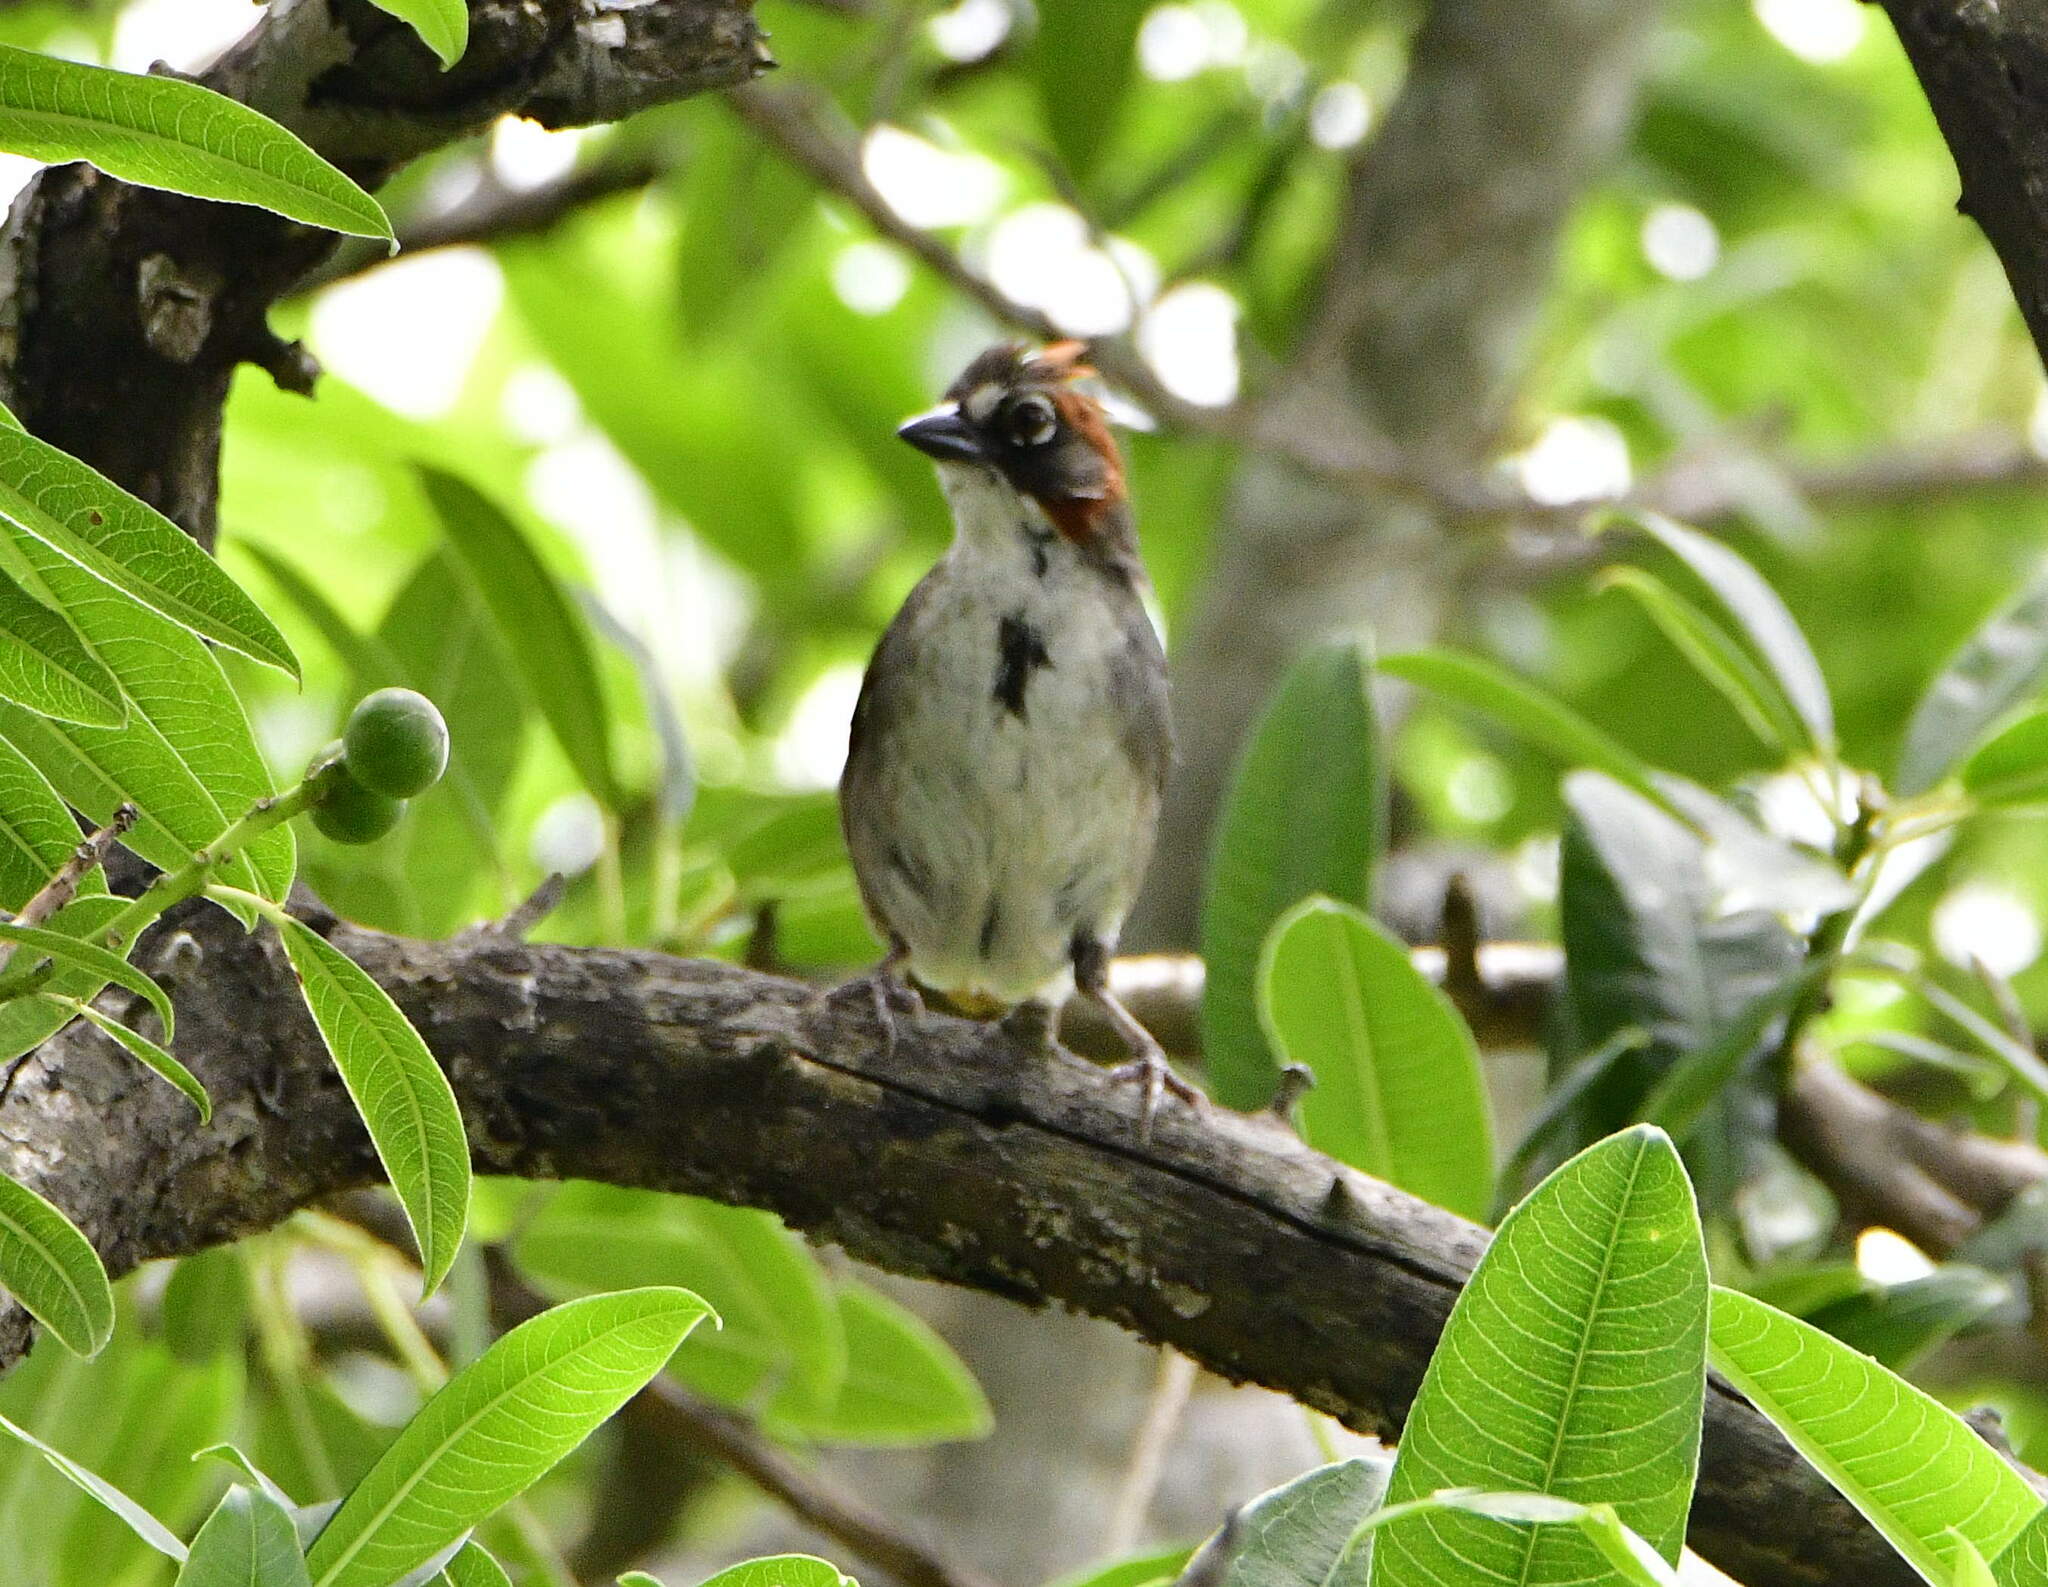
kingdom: Animalia
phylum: Chordata
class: Aves
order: Passeriformes
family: Passerellidae
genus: Melozone
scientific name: Melozone kieneri
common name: Rusty-crowned ground-sparrow
